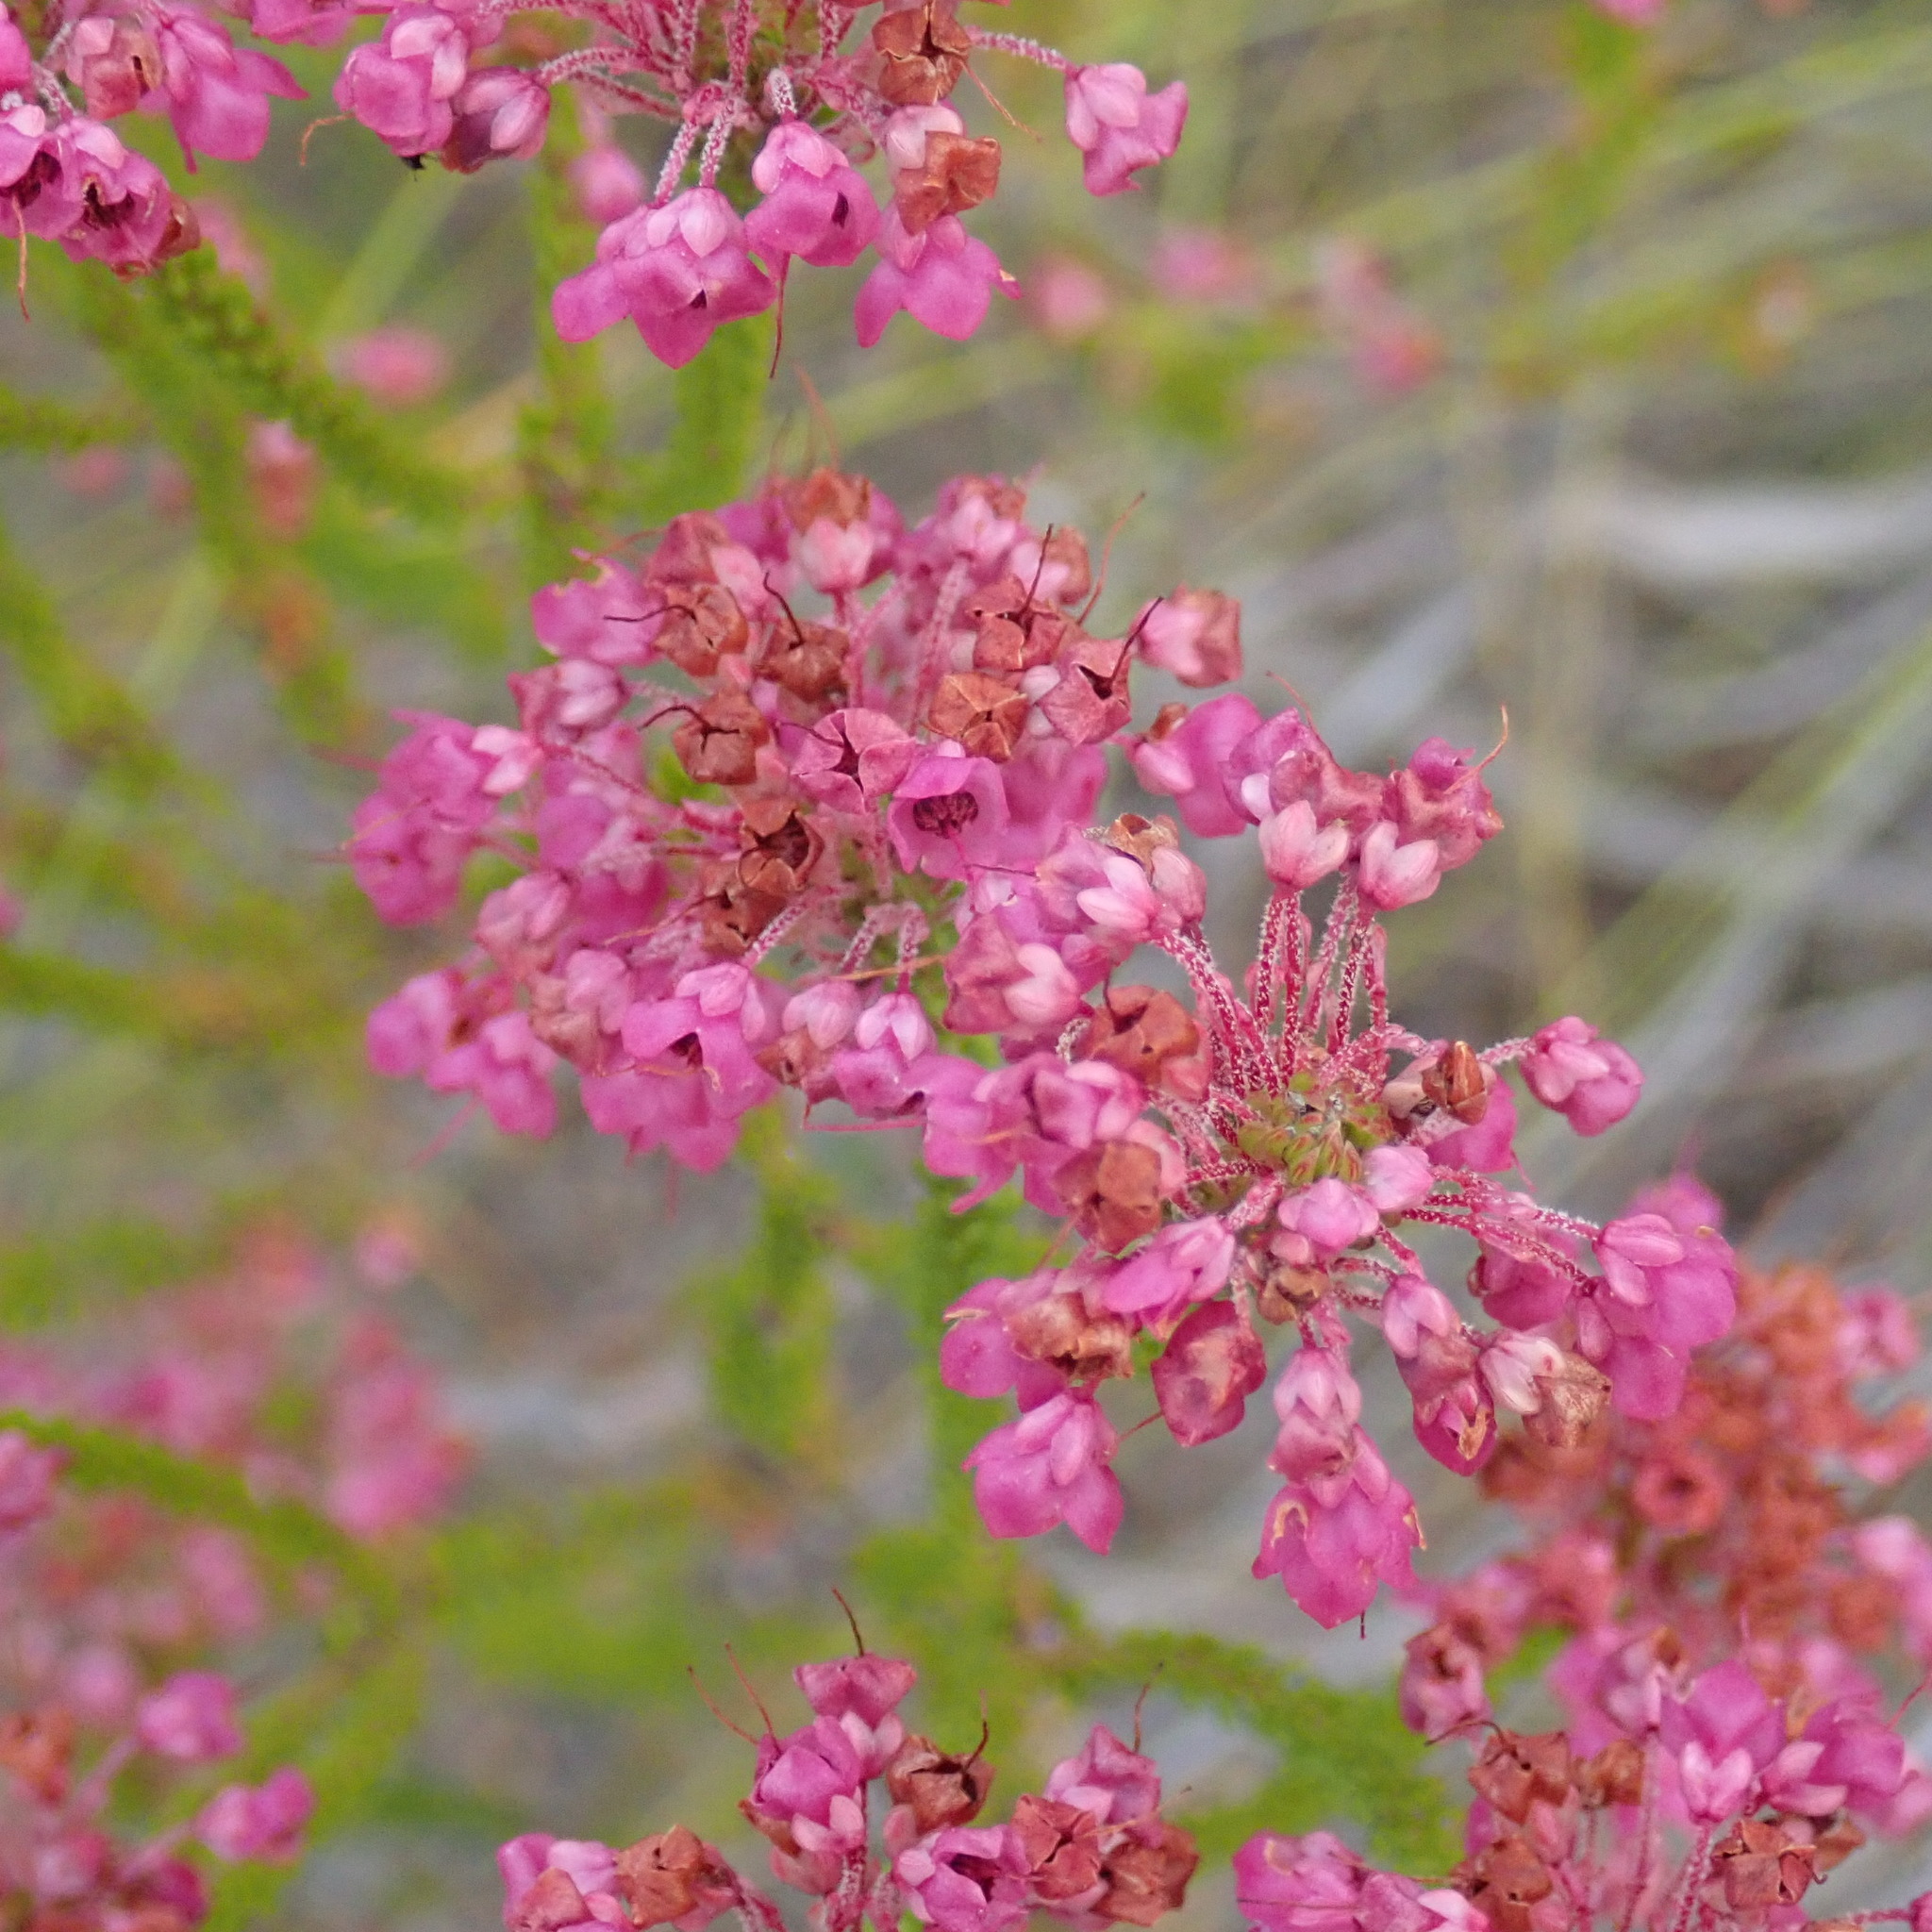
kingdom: Plantae
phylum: Tracheophyta
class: Magnoliopsida
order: Ericales
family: Ericaceae
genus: Erica
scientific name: Erica seriphiifolia
